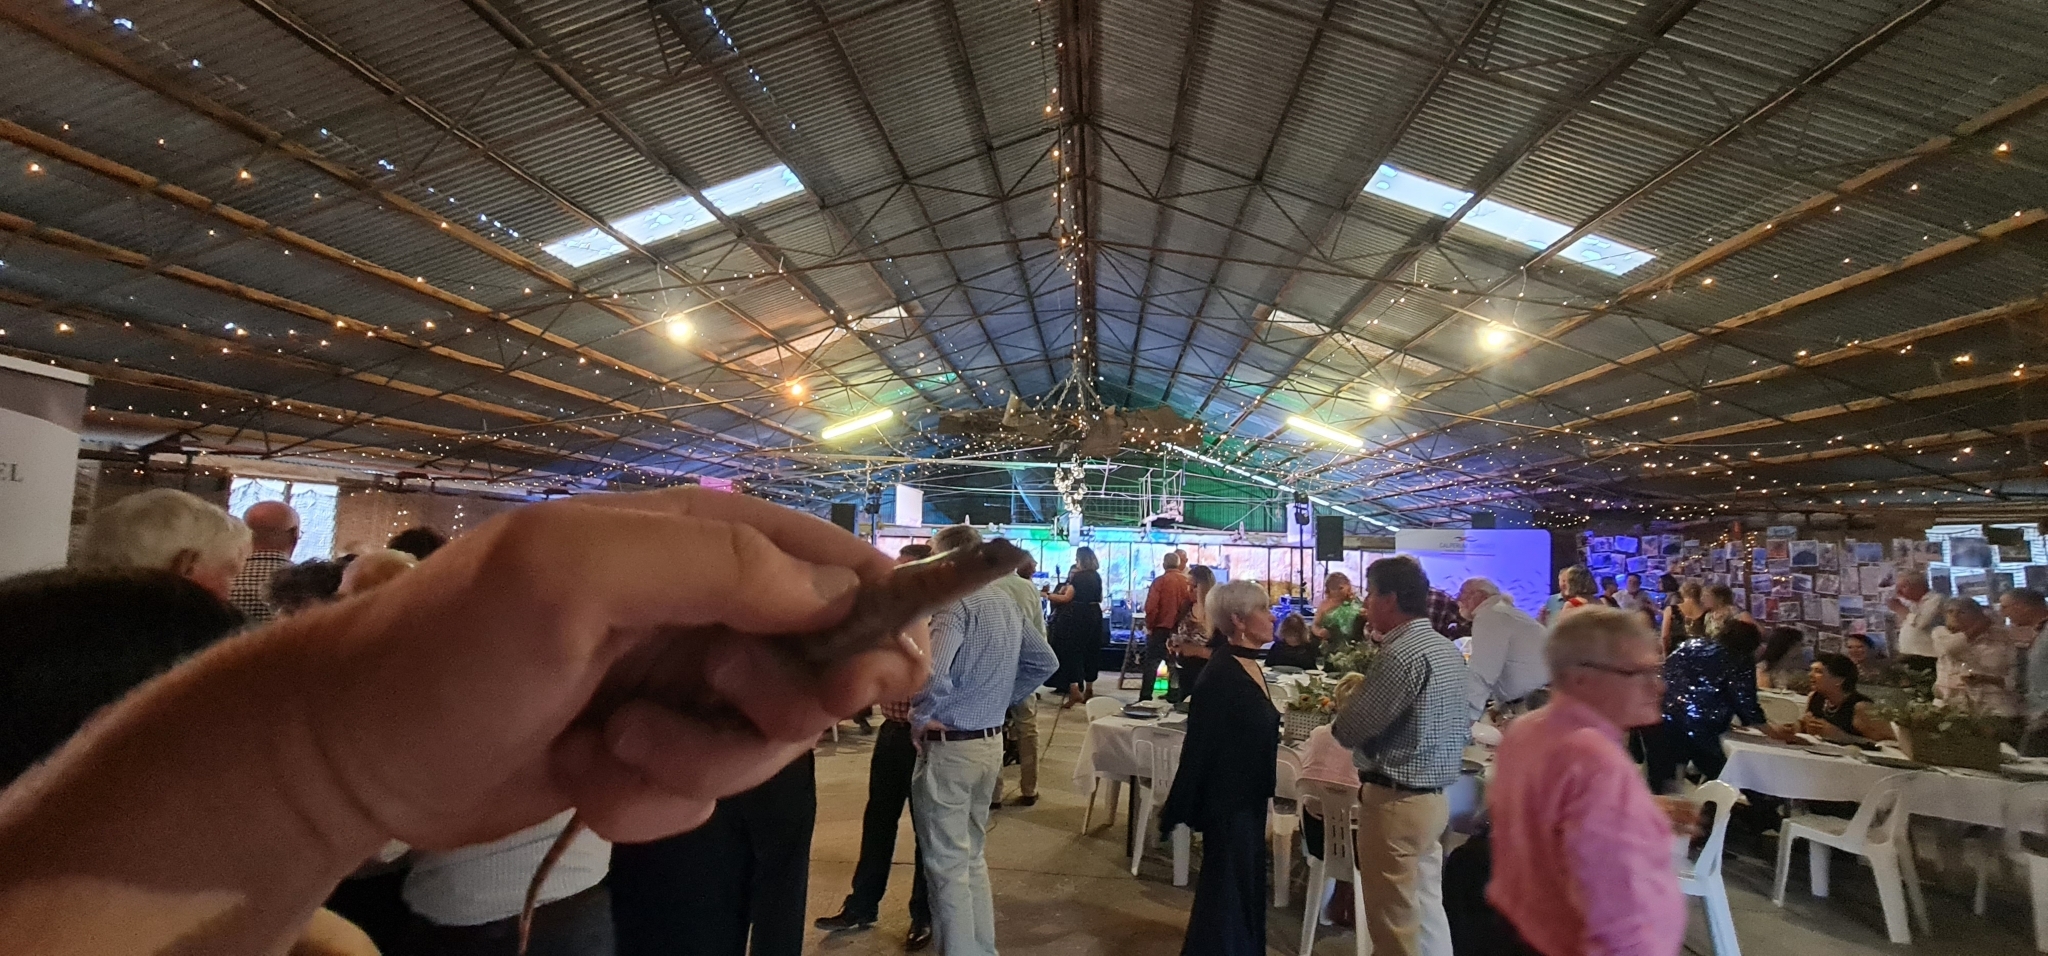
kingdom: Animalia
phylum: Chordata
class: Squamata
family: Scincidae
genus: Eremiascincus
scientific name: Eremiascincus richardsonii
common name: Broad banded sand swimmer
